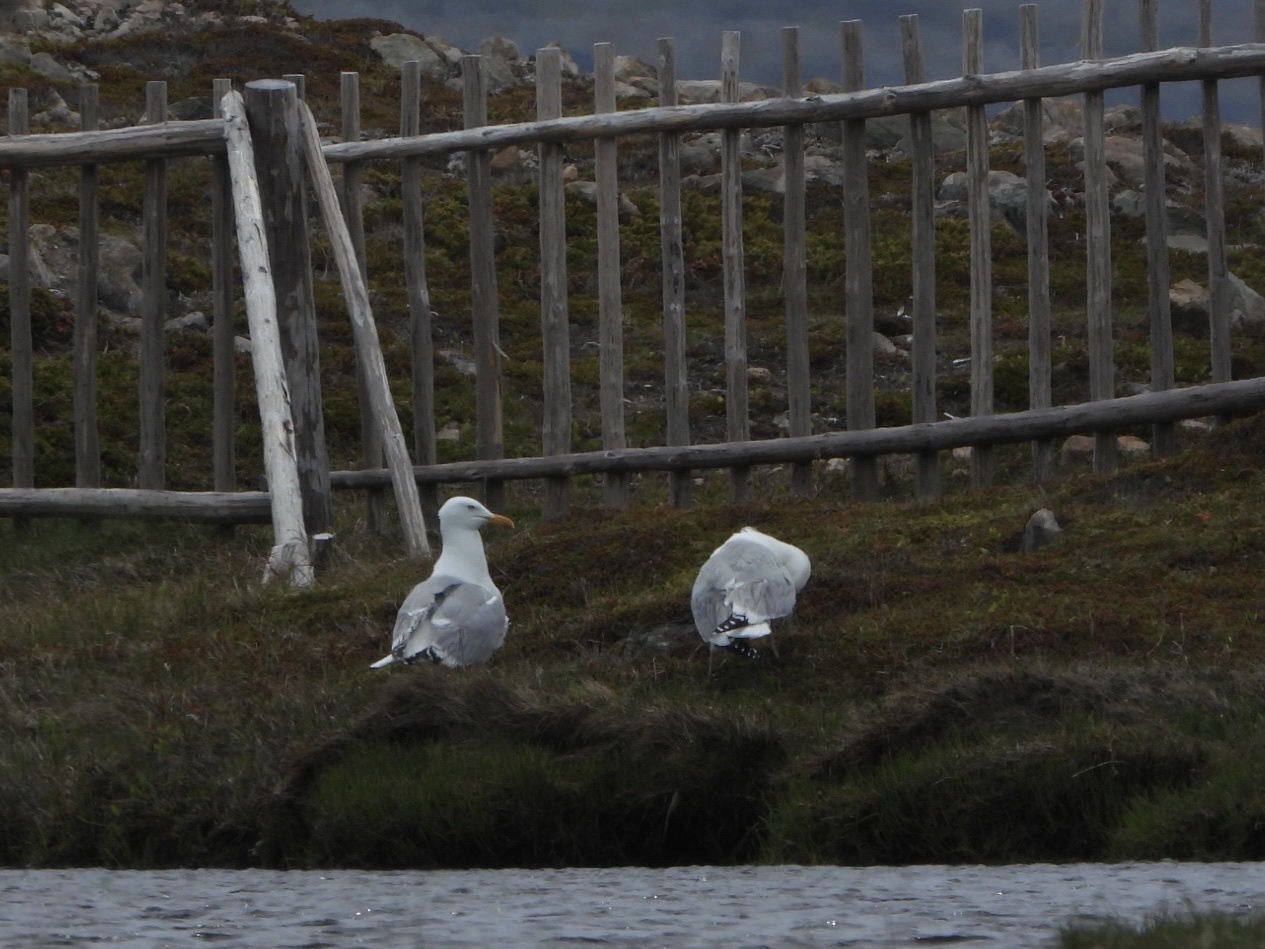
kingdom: Animalia
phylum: Chordata
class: Aves
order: Charadriiformes
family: Laridae
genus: Larus
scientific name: Larus smithsonianus
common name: American herring gull
